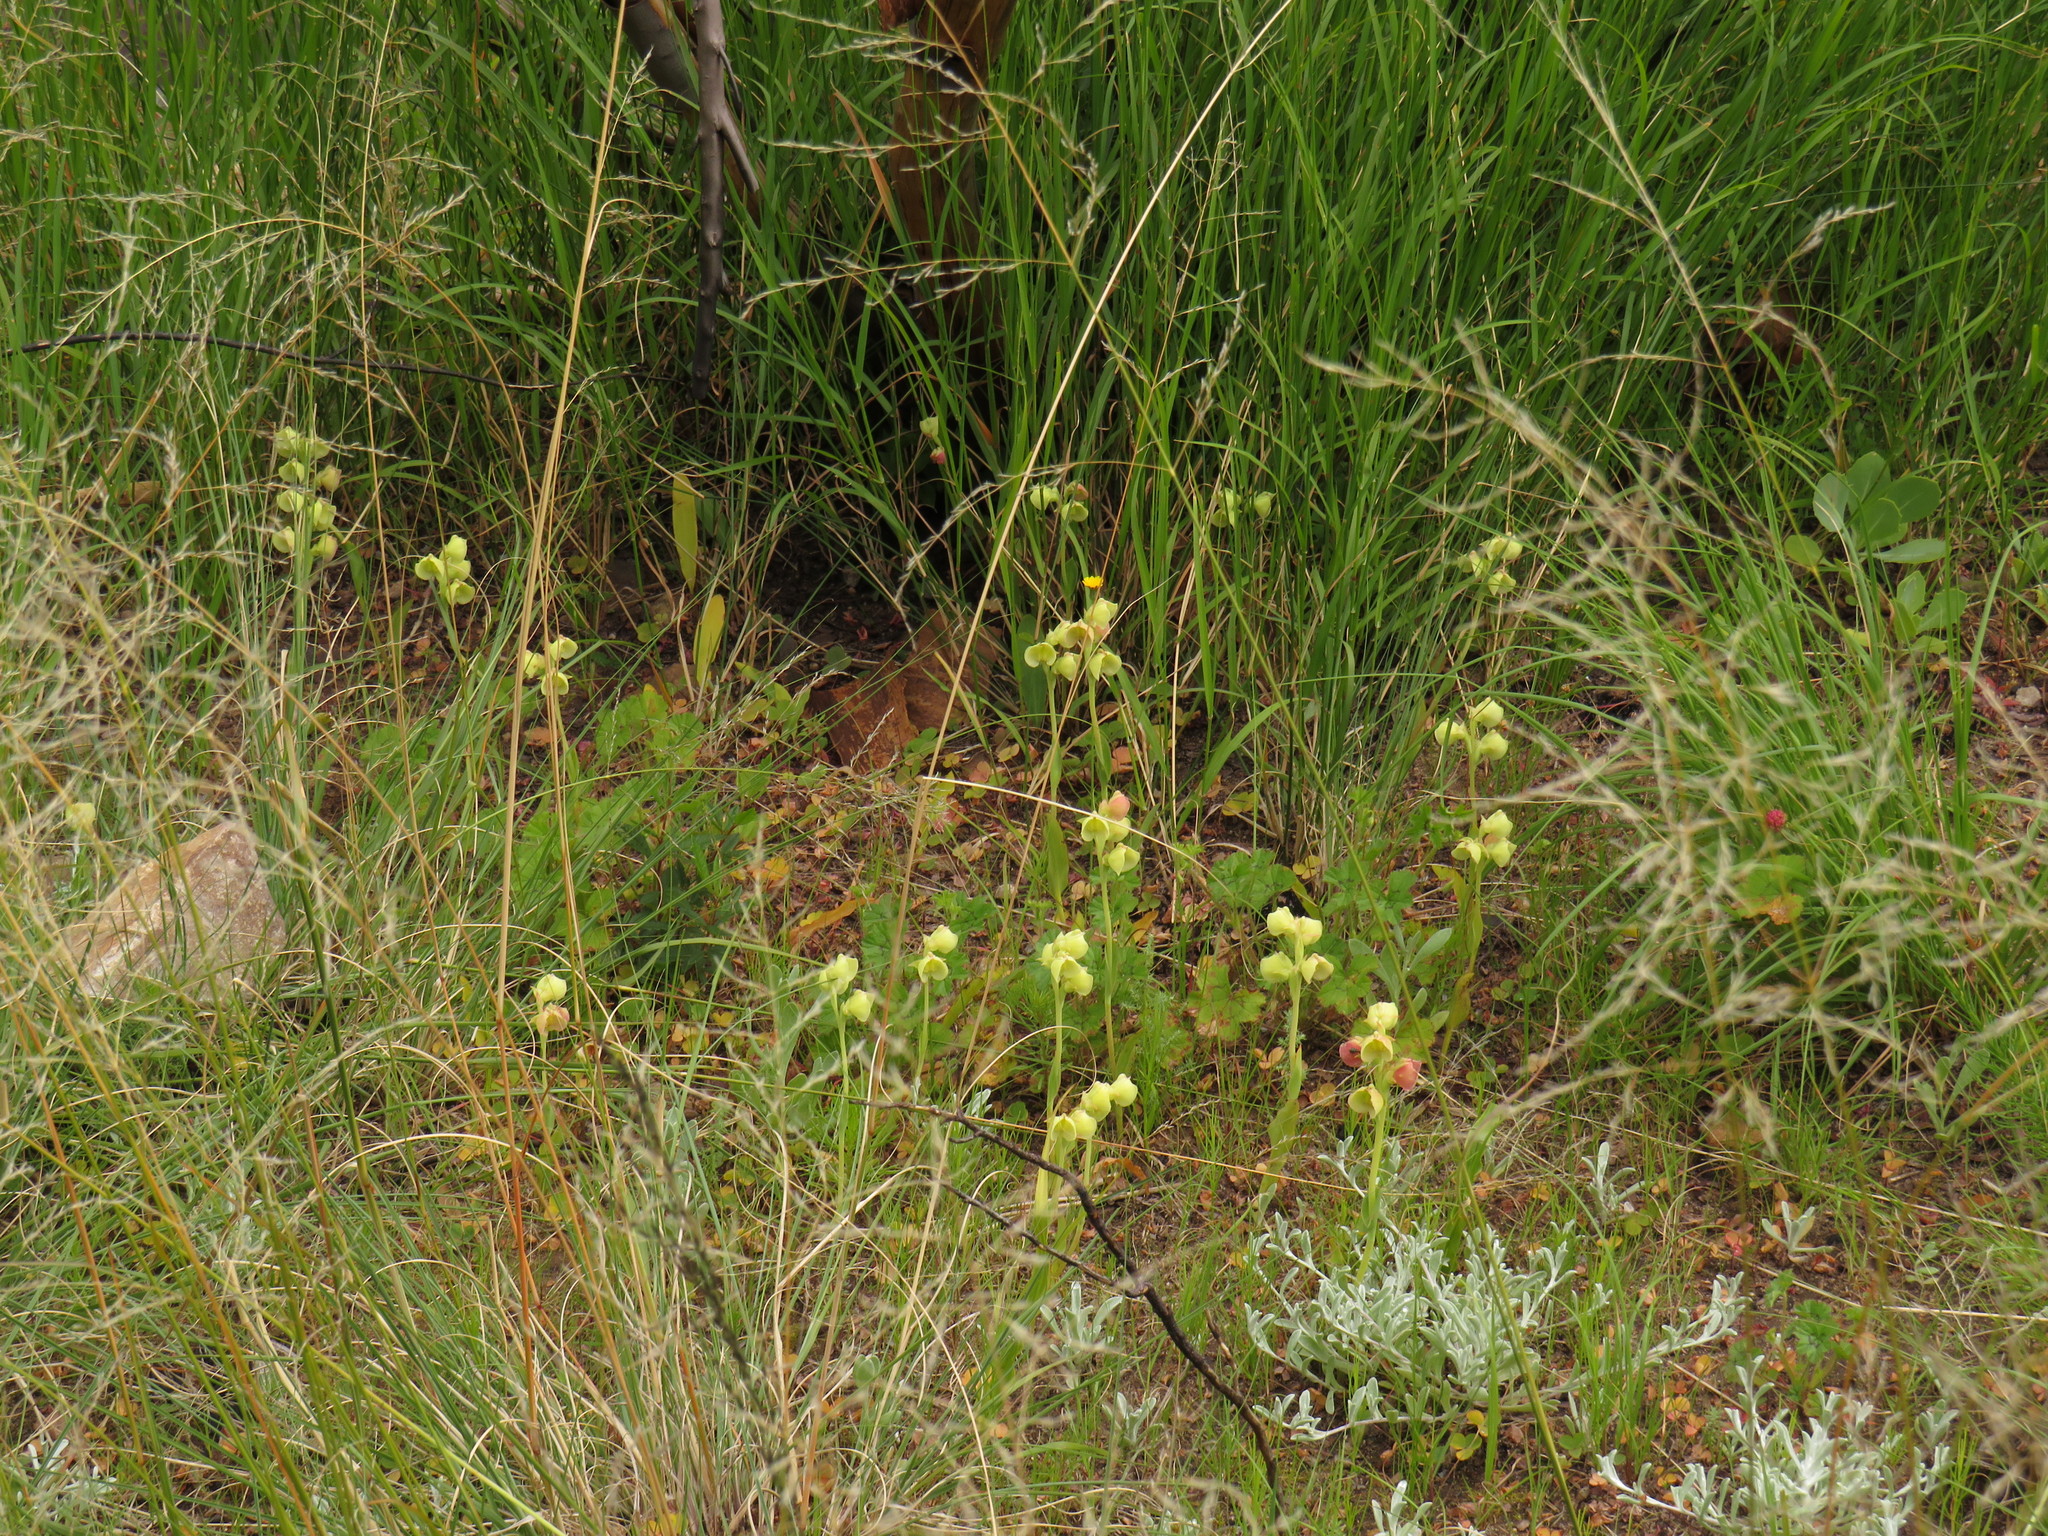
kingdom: Plantae
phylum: Tracheophyta
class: Liliopsida
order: Asparagales
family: Orchidaceae
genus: Pterygodium
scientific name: Pterygodium catholicum
